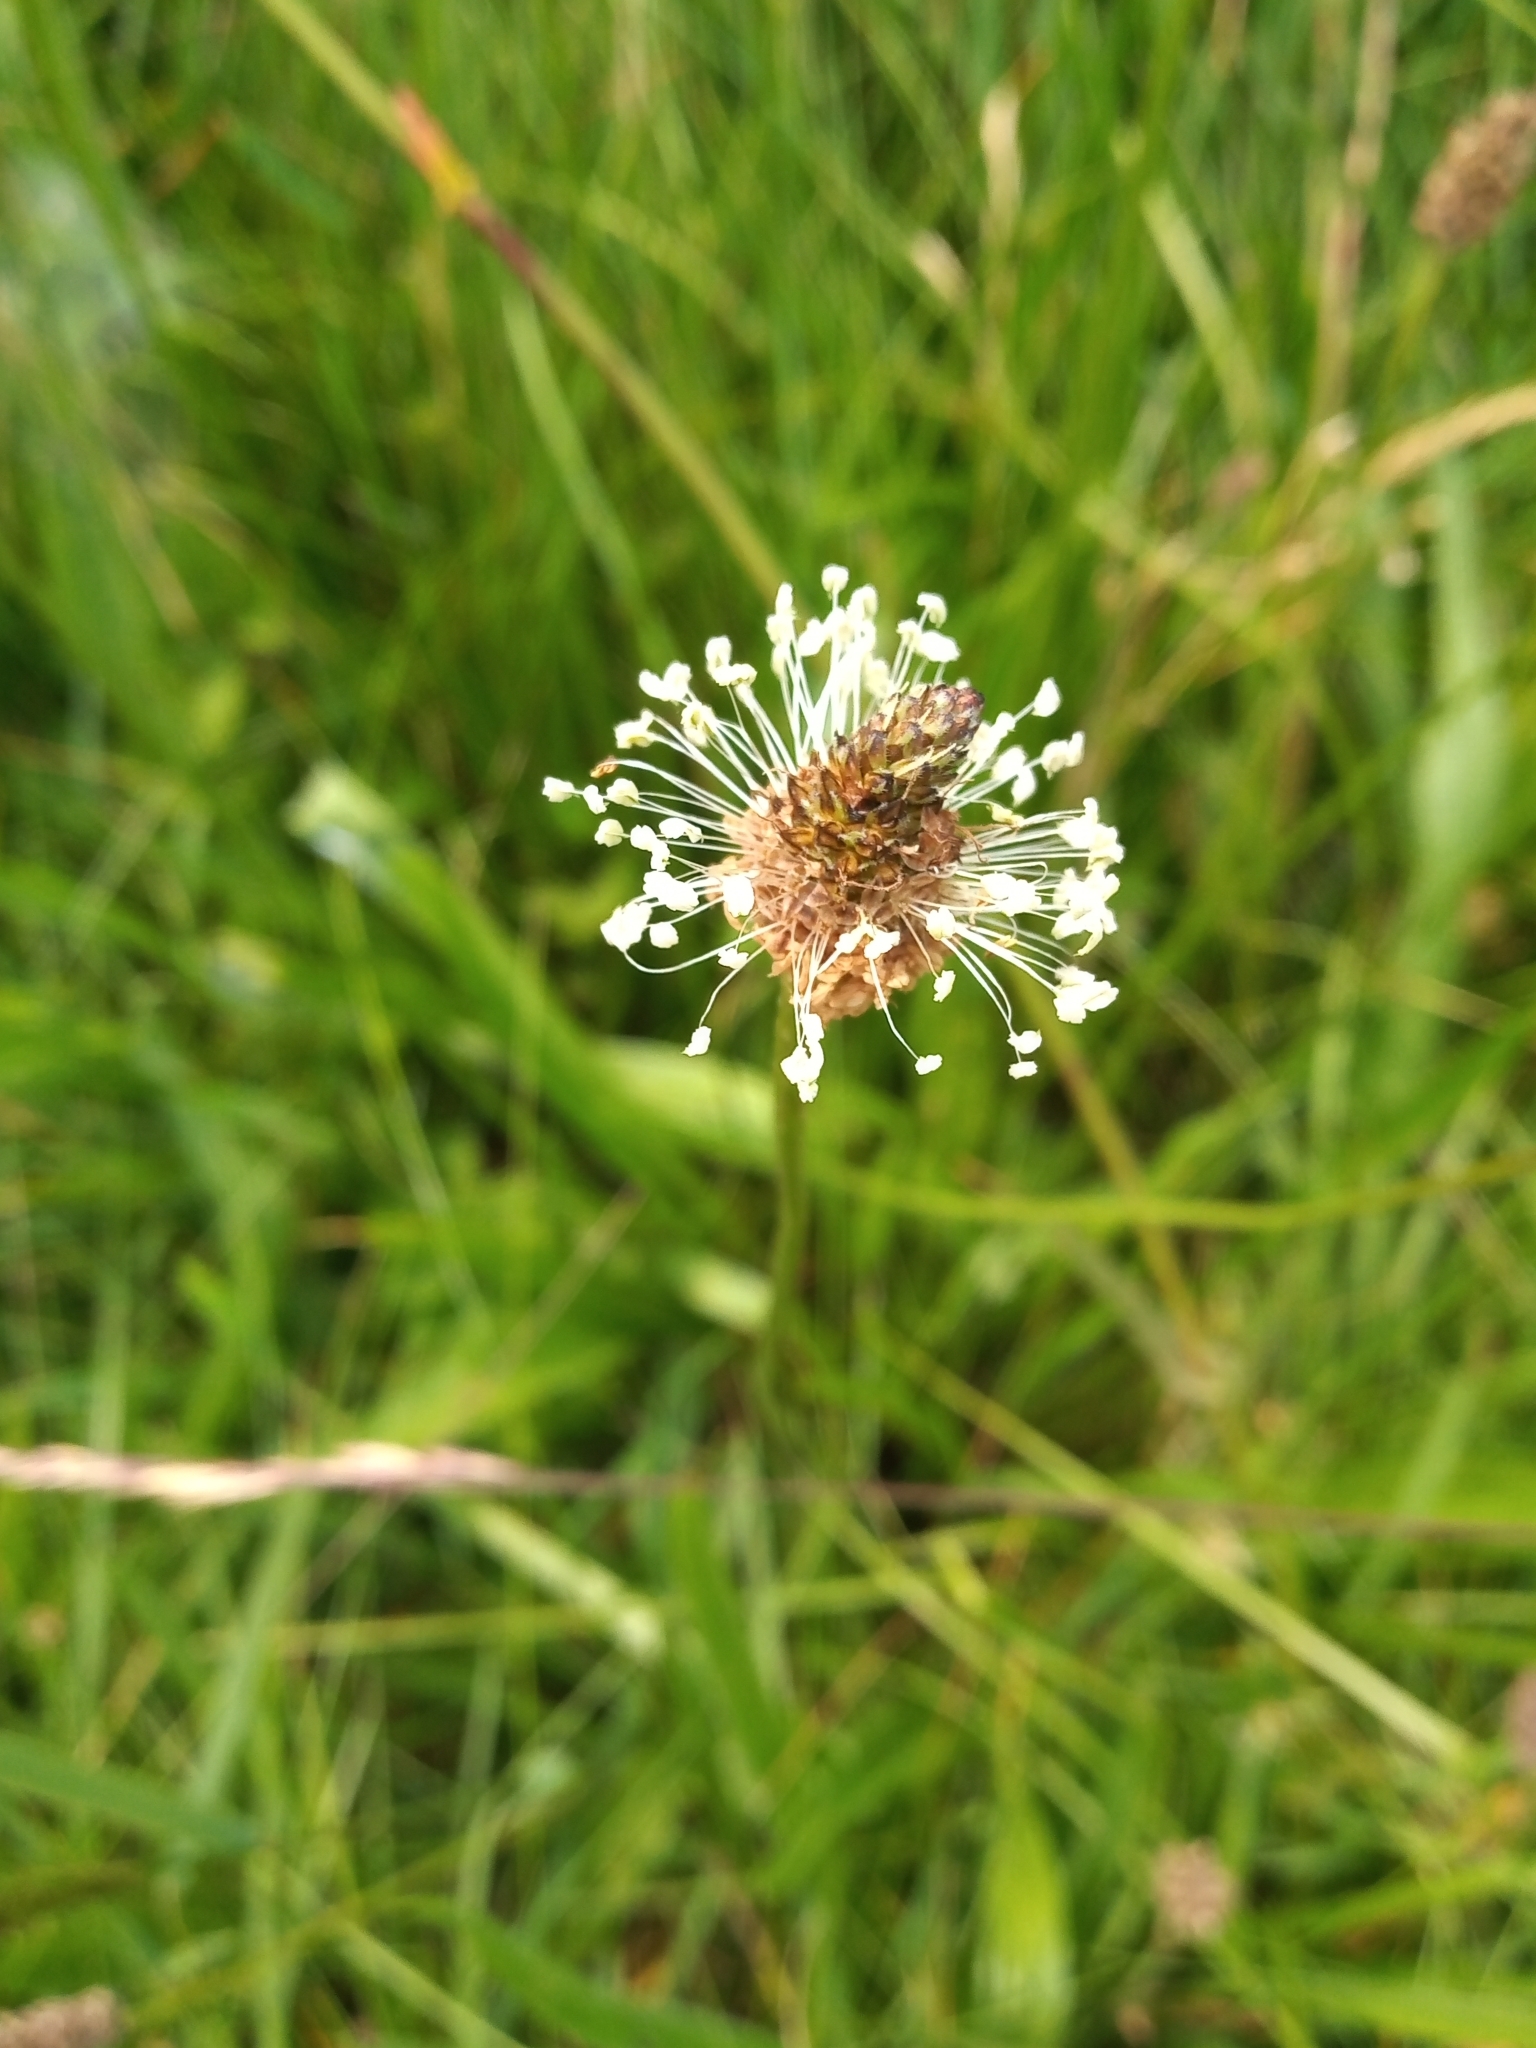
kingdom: Plantae
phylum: Tracheophyta
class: Magnoliopsida
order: Lamiales
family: Plantaginaceae
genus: Plantago
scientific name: Plantago lanceolata
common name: Ribwort plantain
